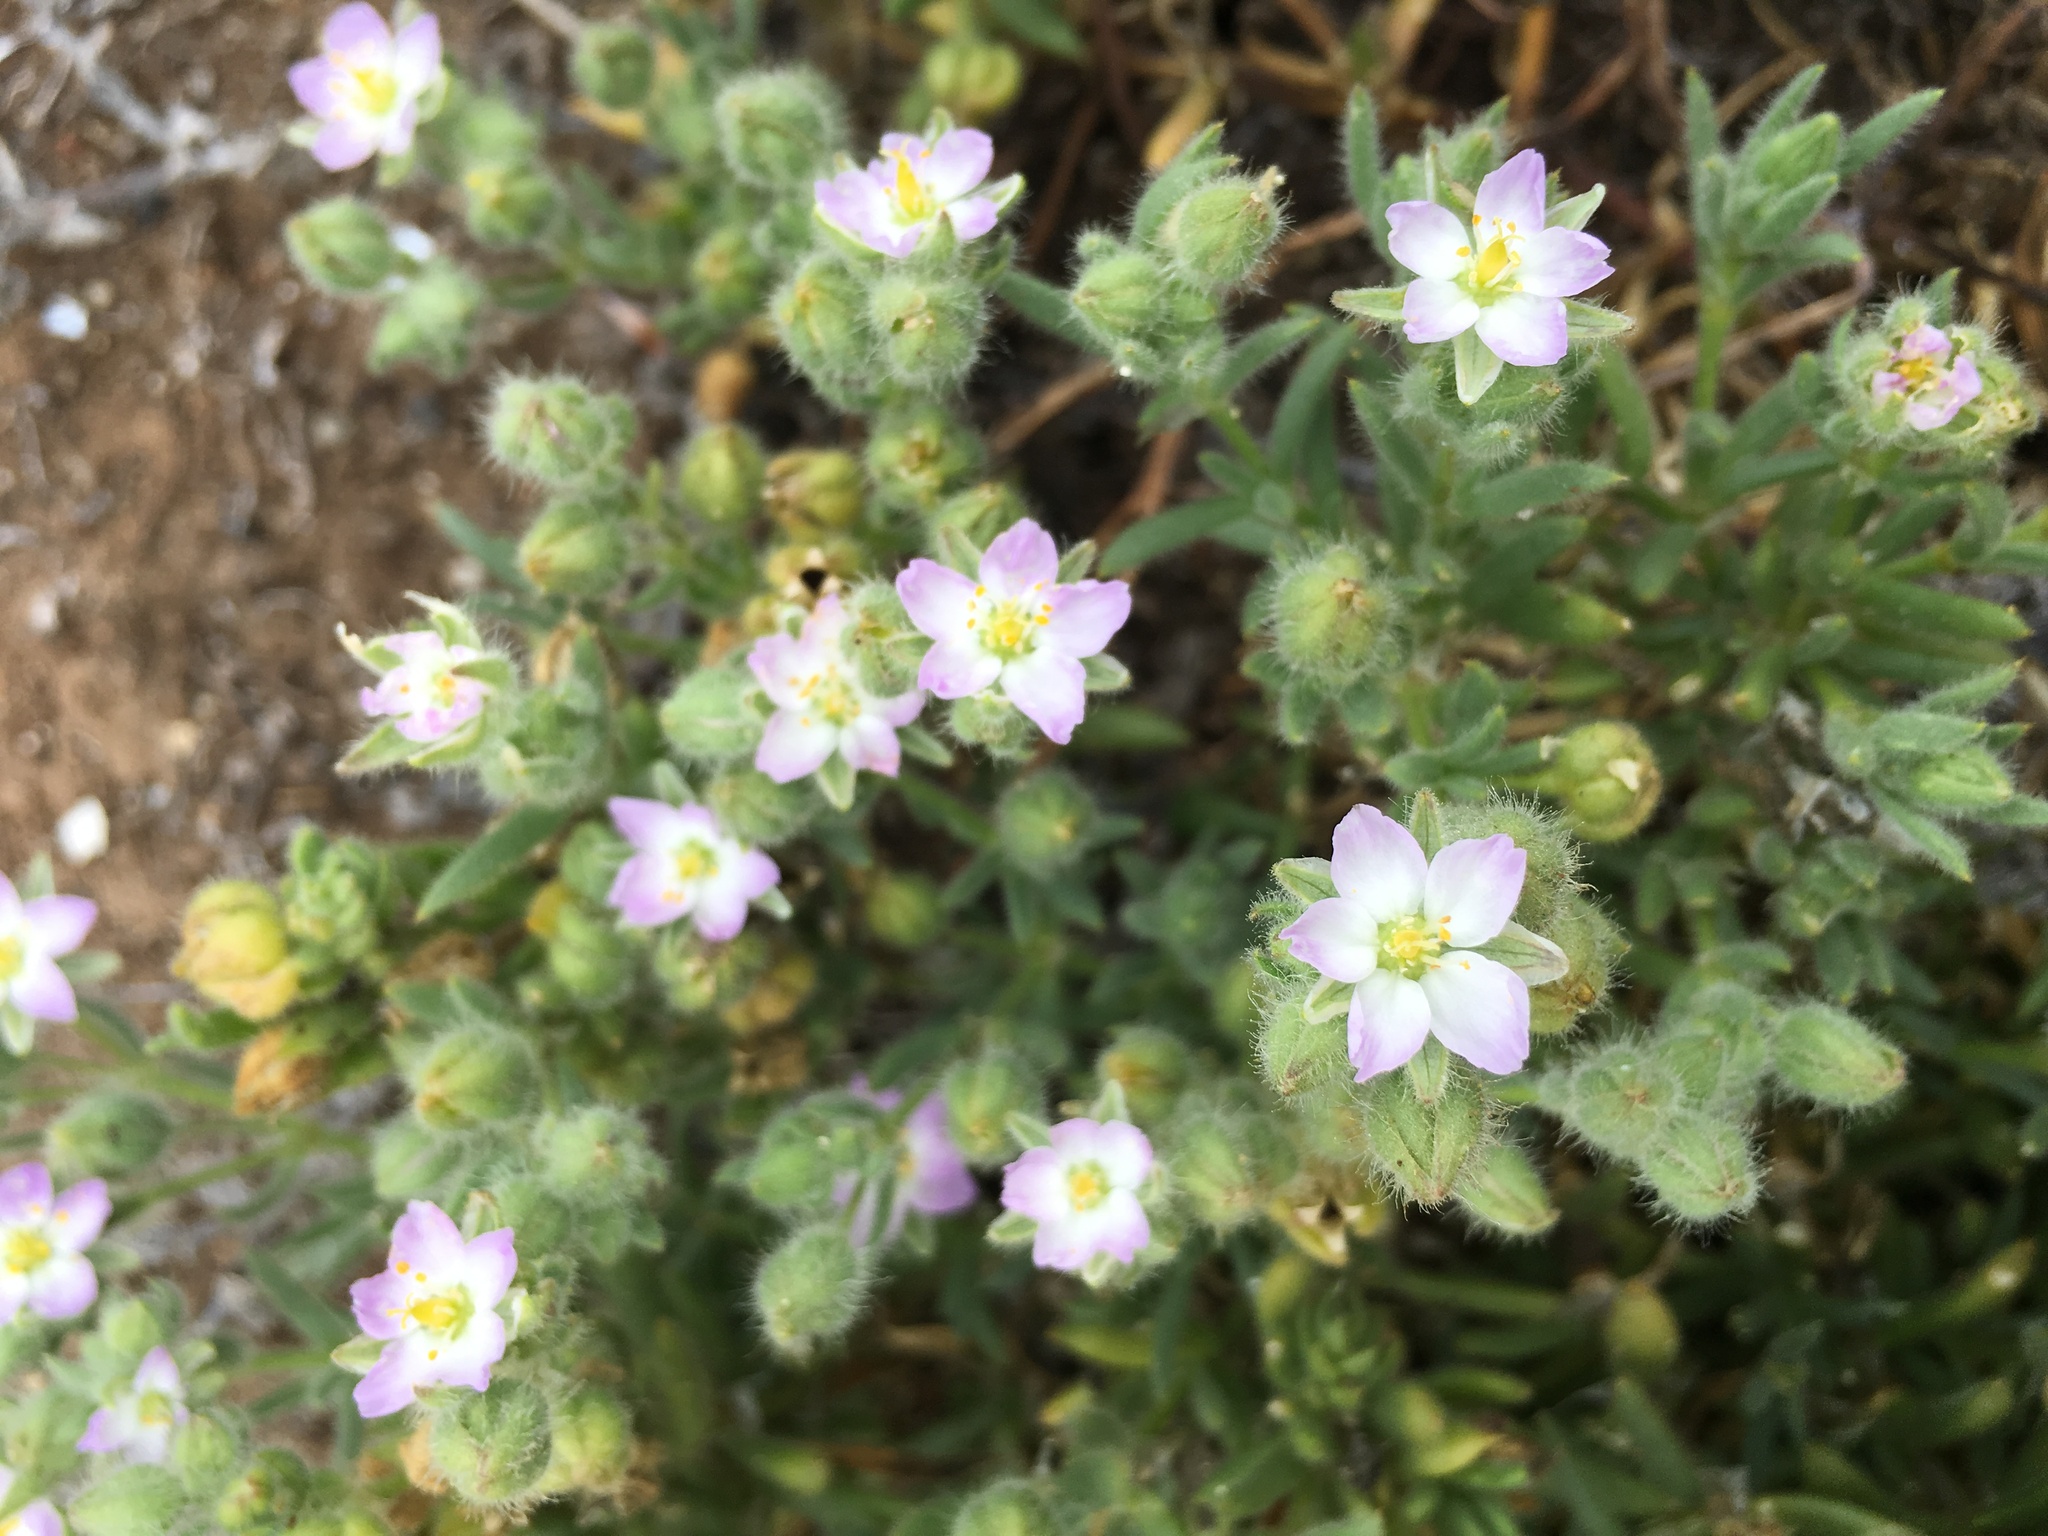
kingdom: Plantae
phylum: Tracheophyta
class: Magnoliopsida
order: Caryophyllales
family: Caryophyllaceae
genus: Spergularia
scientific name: Spergularia macrotheca
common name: Beach sand-spurrey
